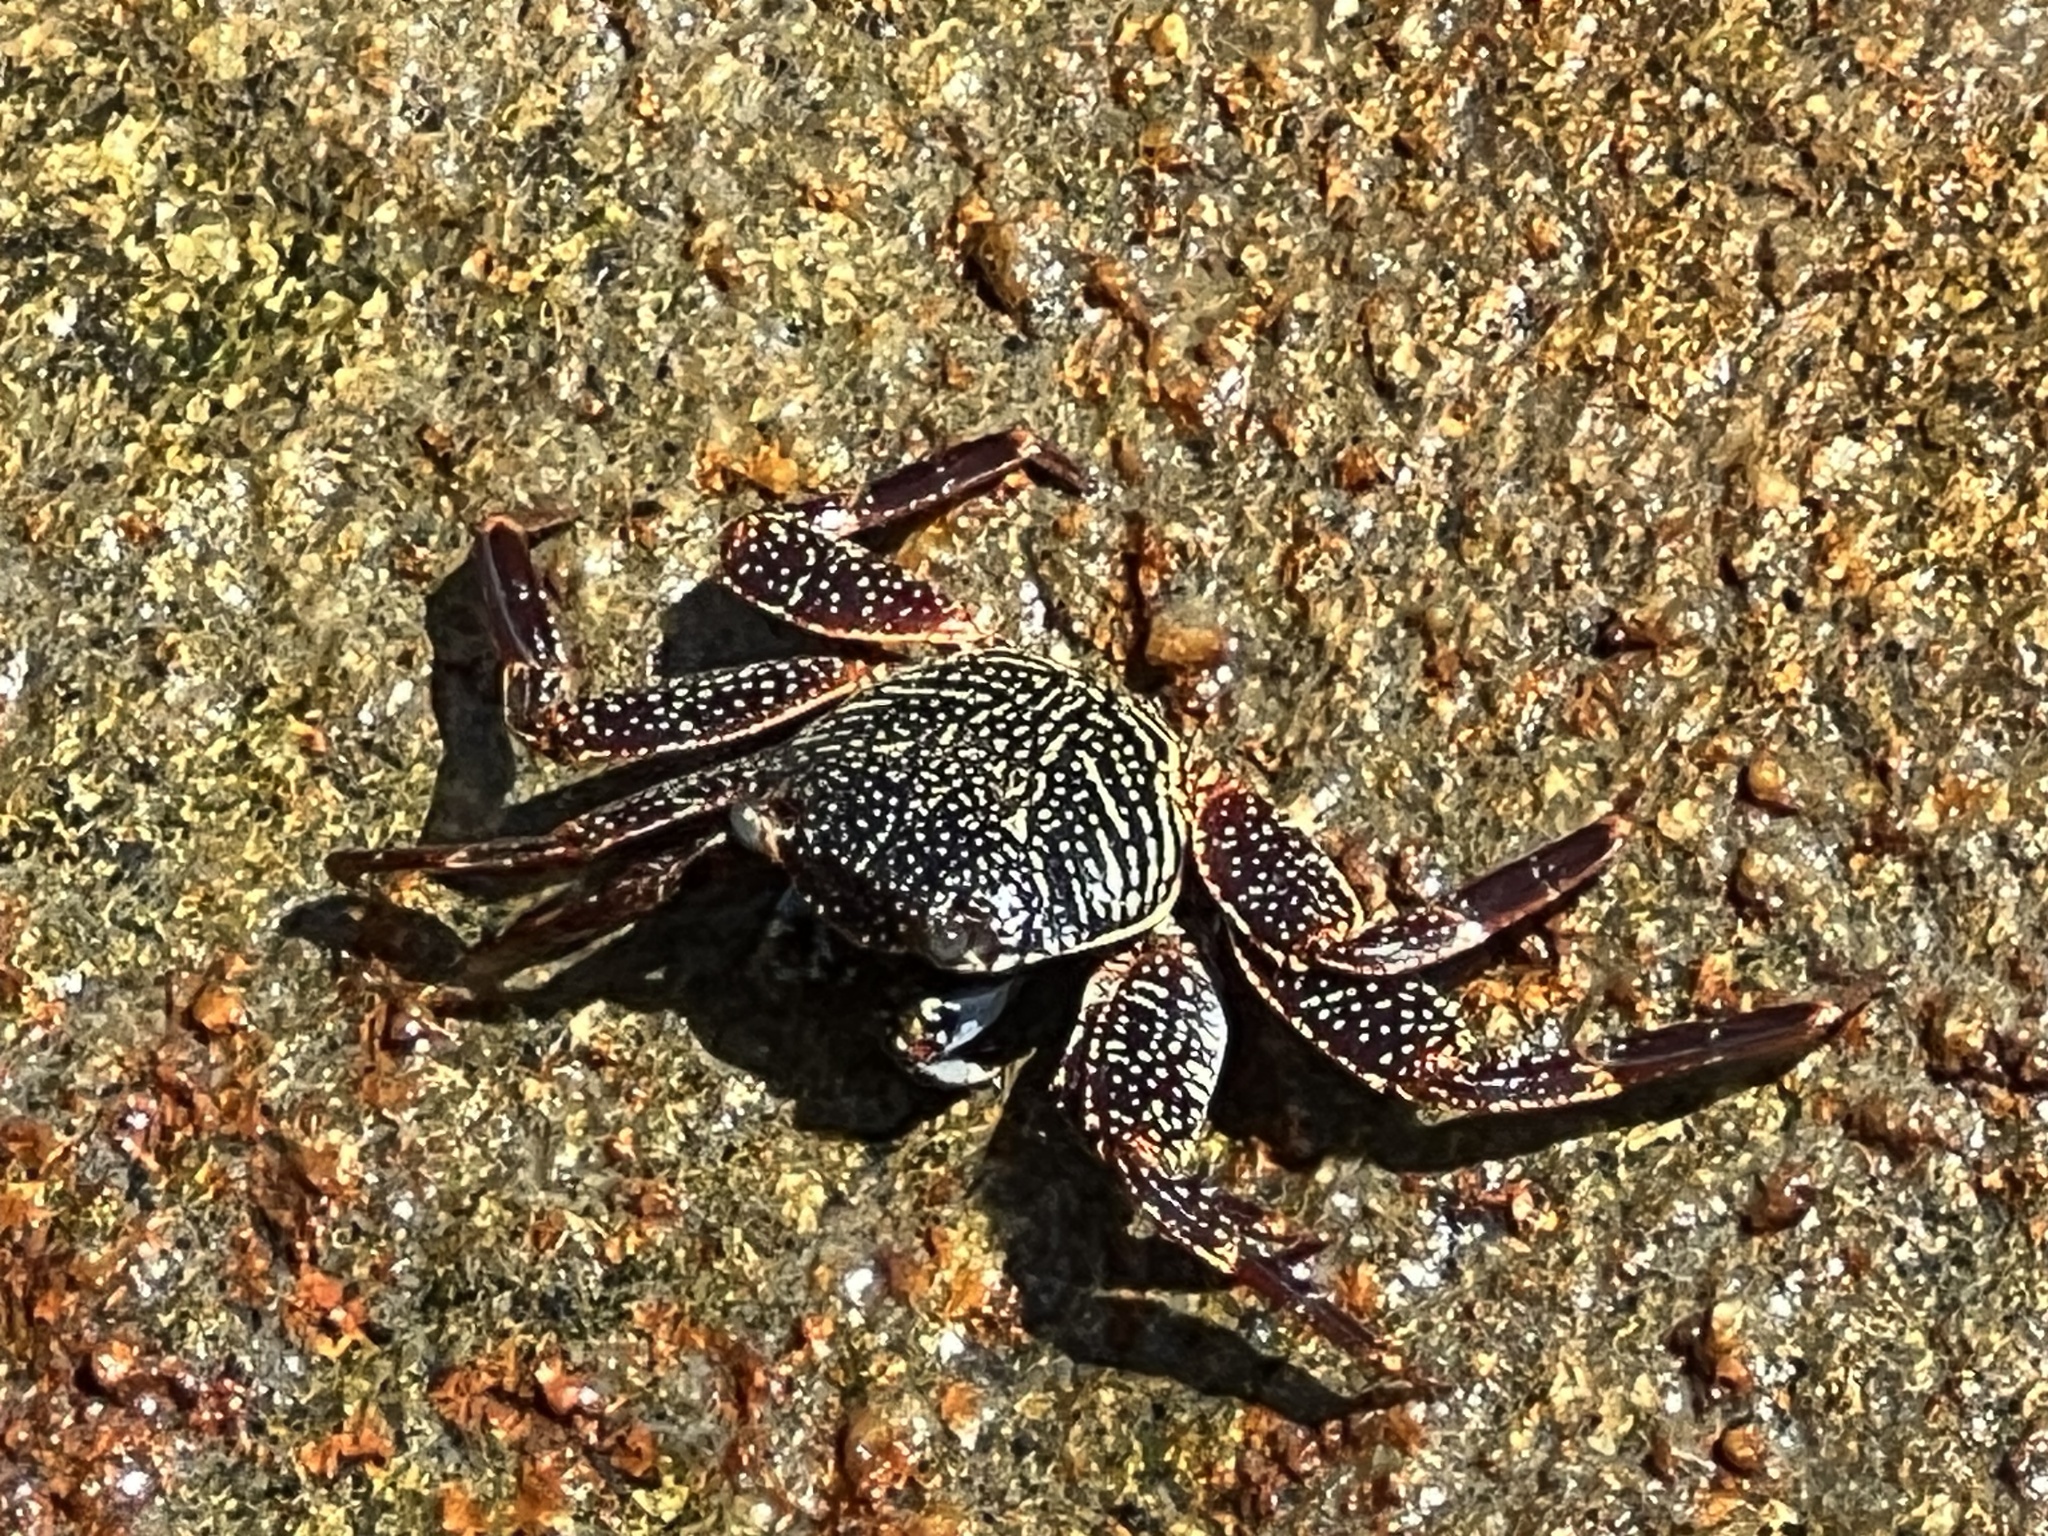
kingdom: Animalia
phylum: Arthropoda
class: Malacostraca
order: Decapoda
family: Grapsidae
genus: Grapsus
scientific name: Grapsus grapsus
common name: Sally lightfoot
